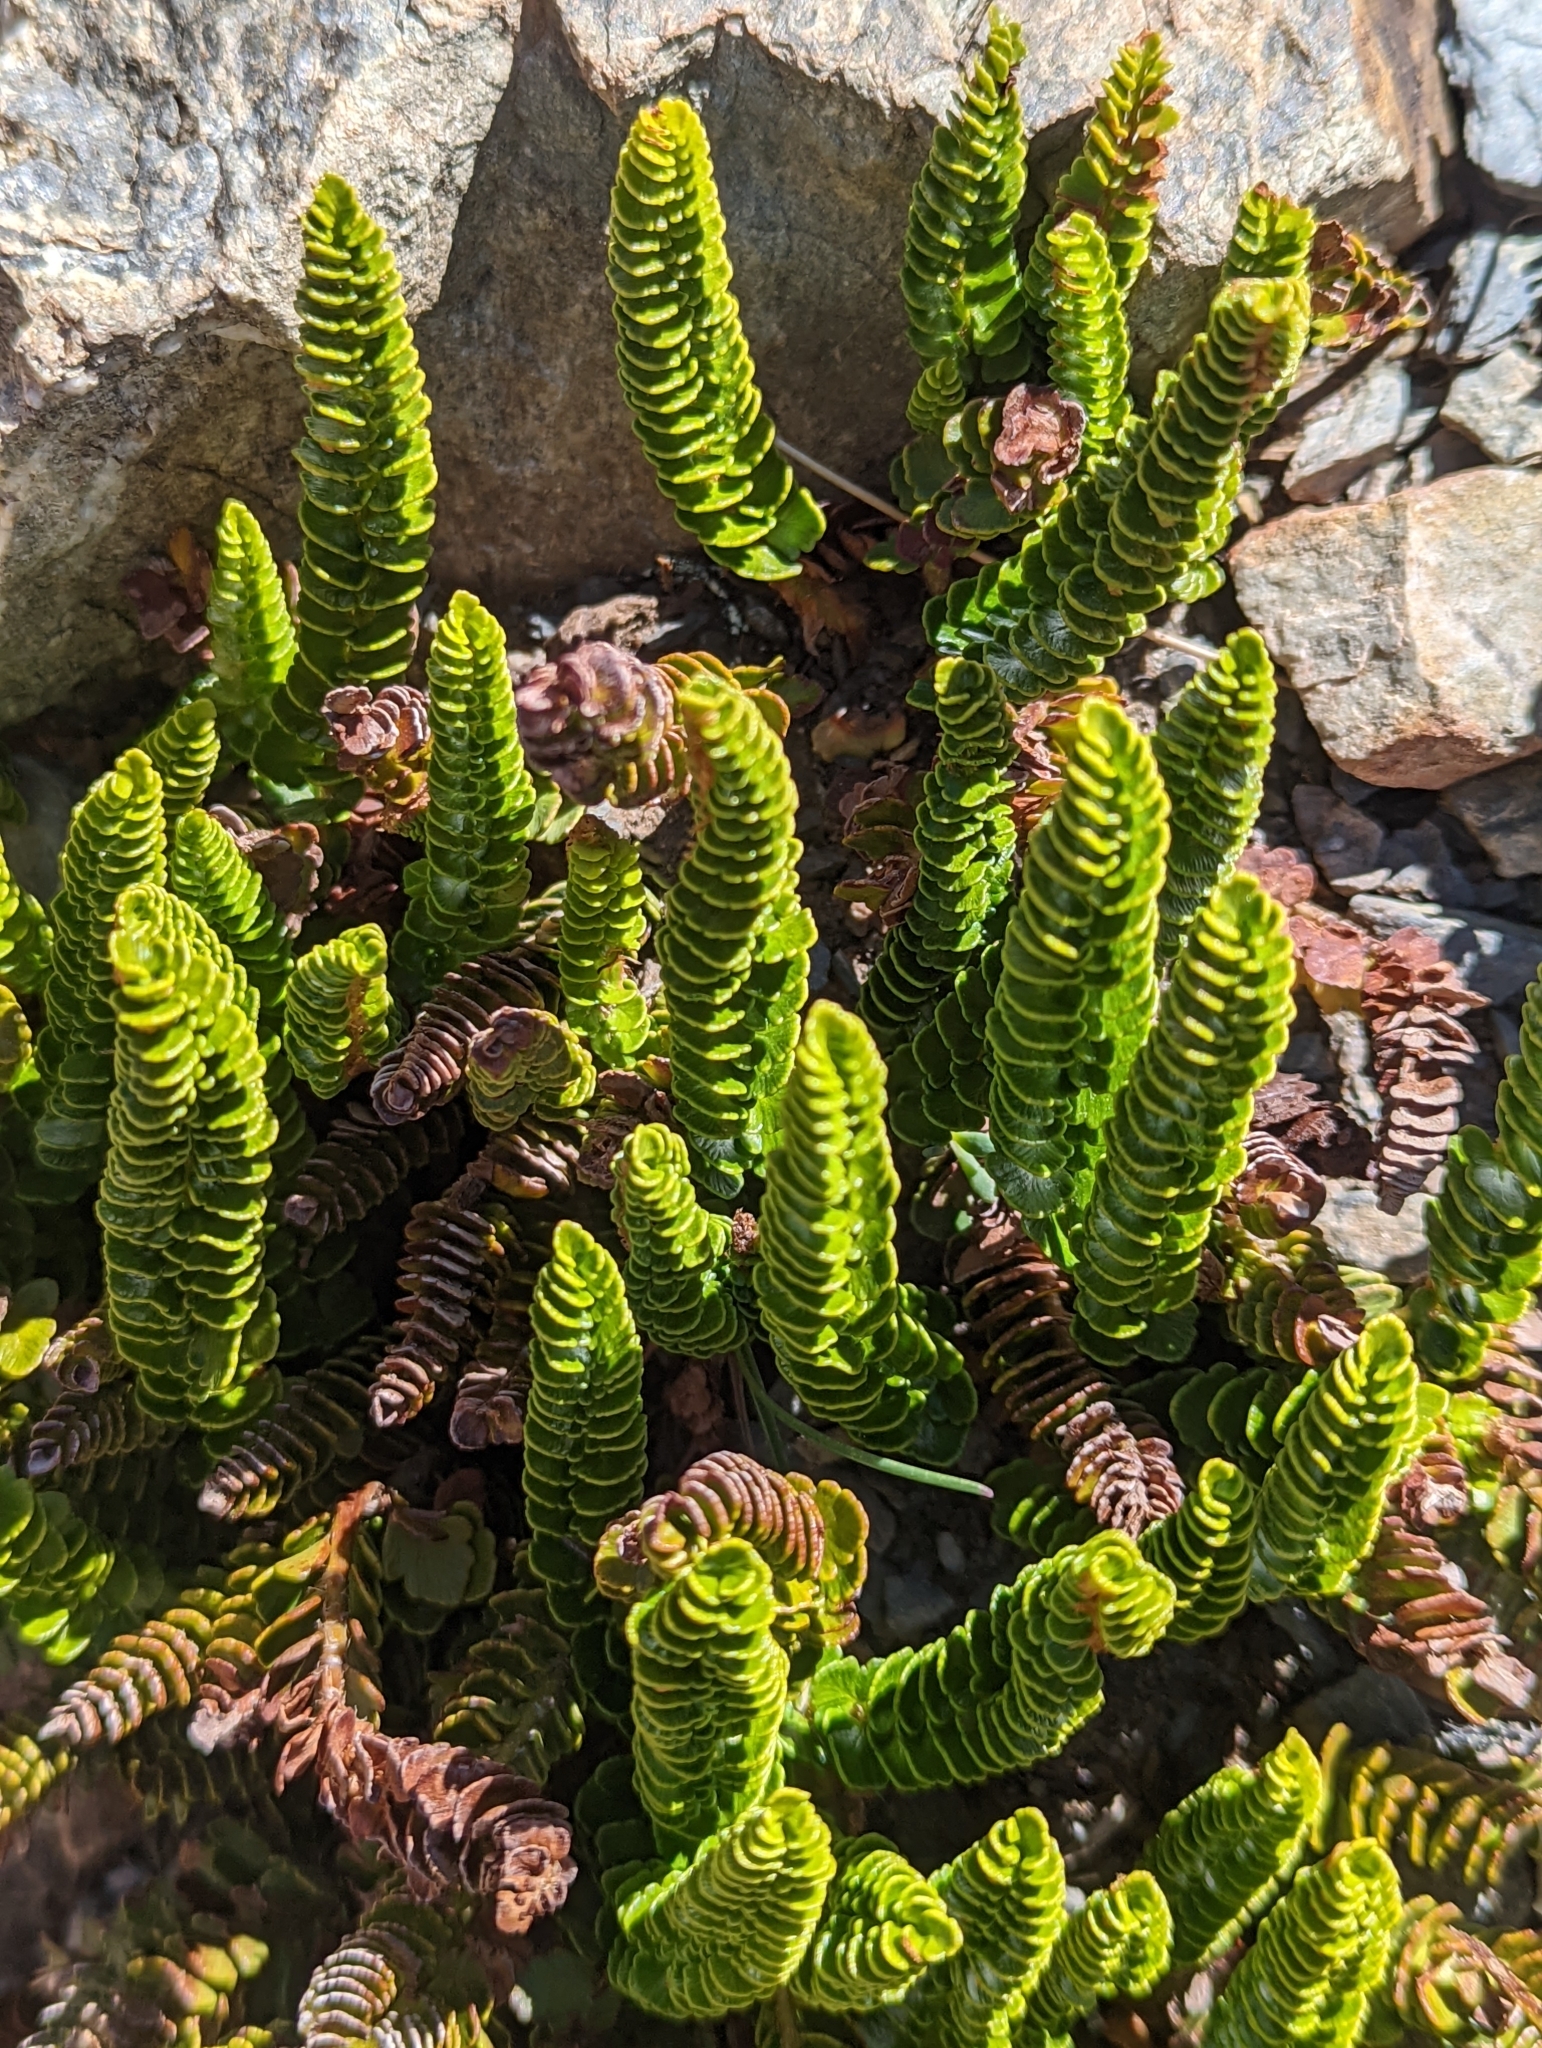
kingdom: Plantae
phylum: Tracheophyta
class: Polypodiopsida
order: Polypodiales
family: Dryopteridaceae
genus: Polystichum
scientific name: Polystichum andinum
